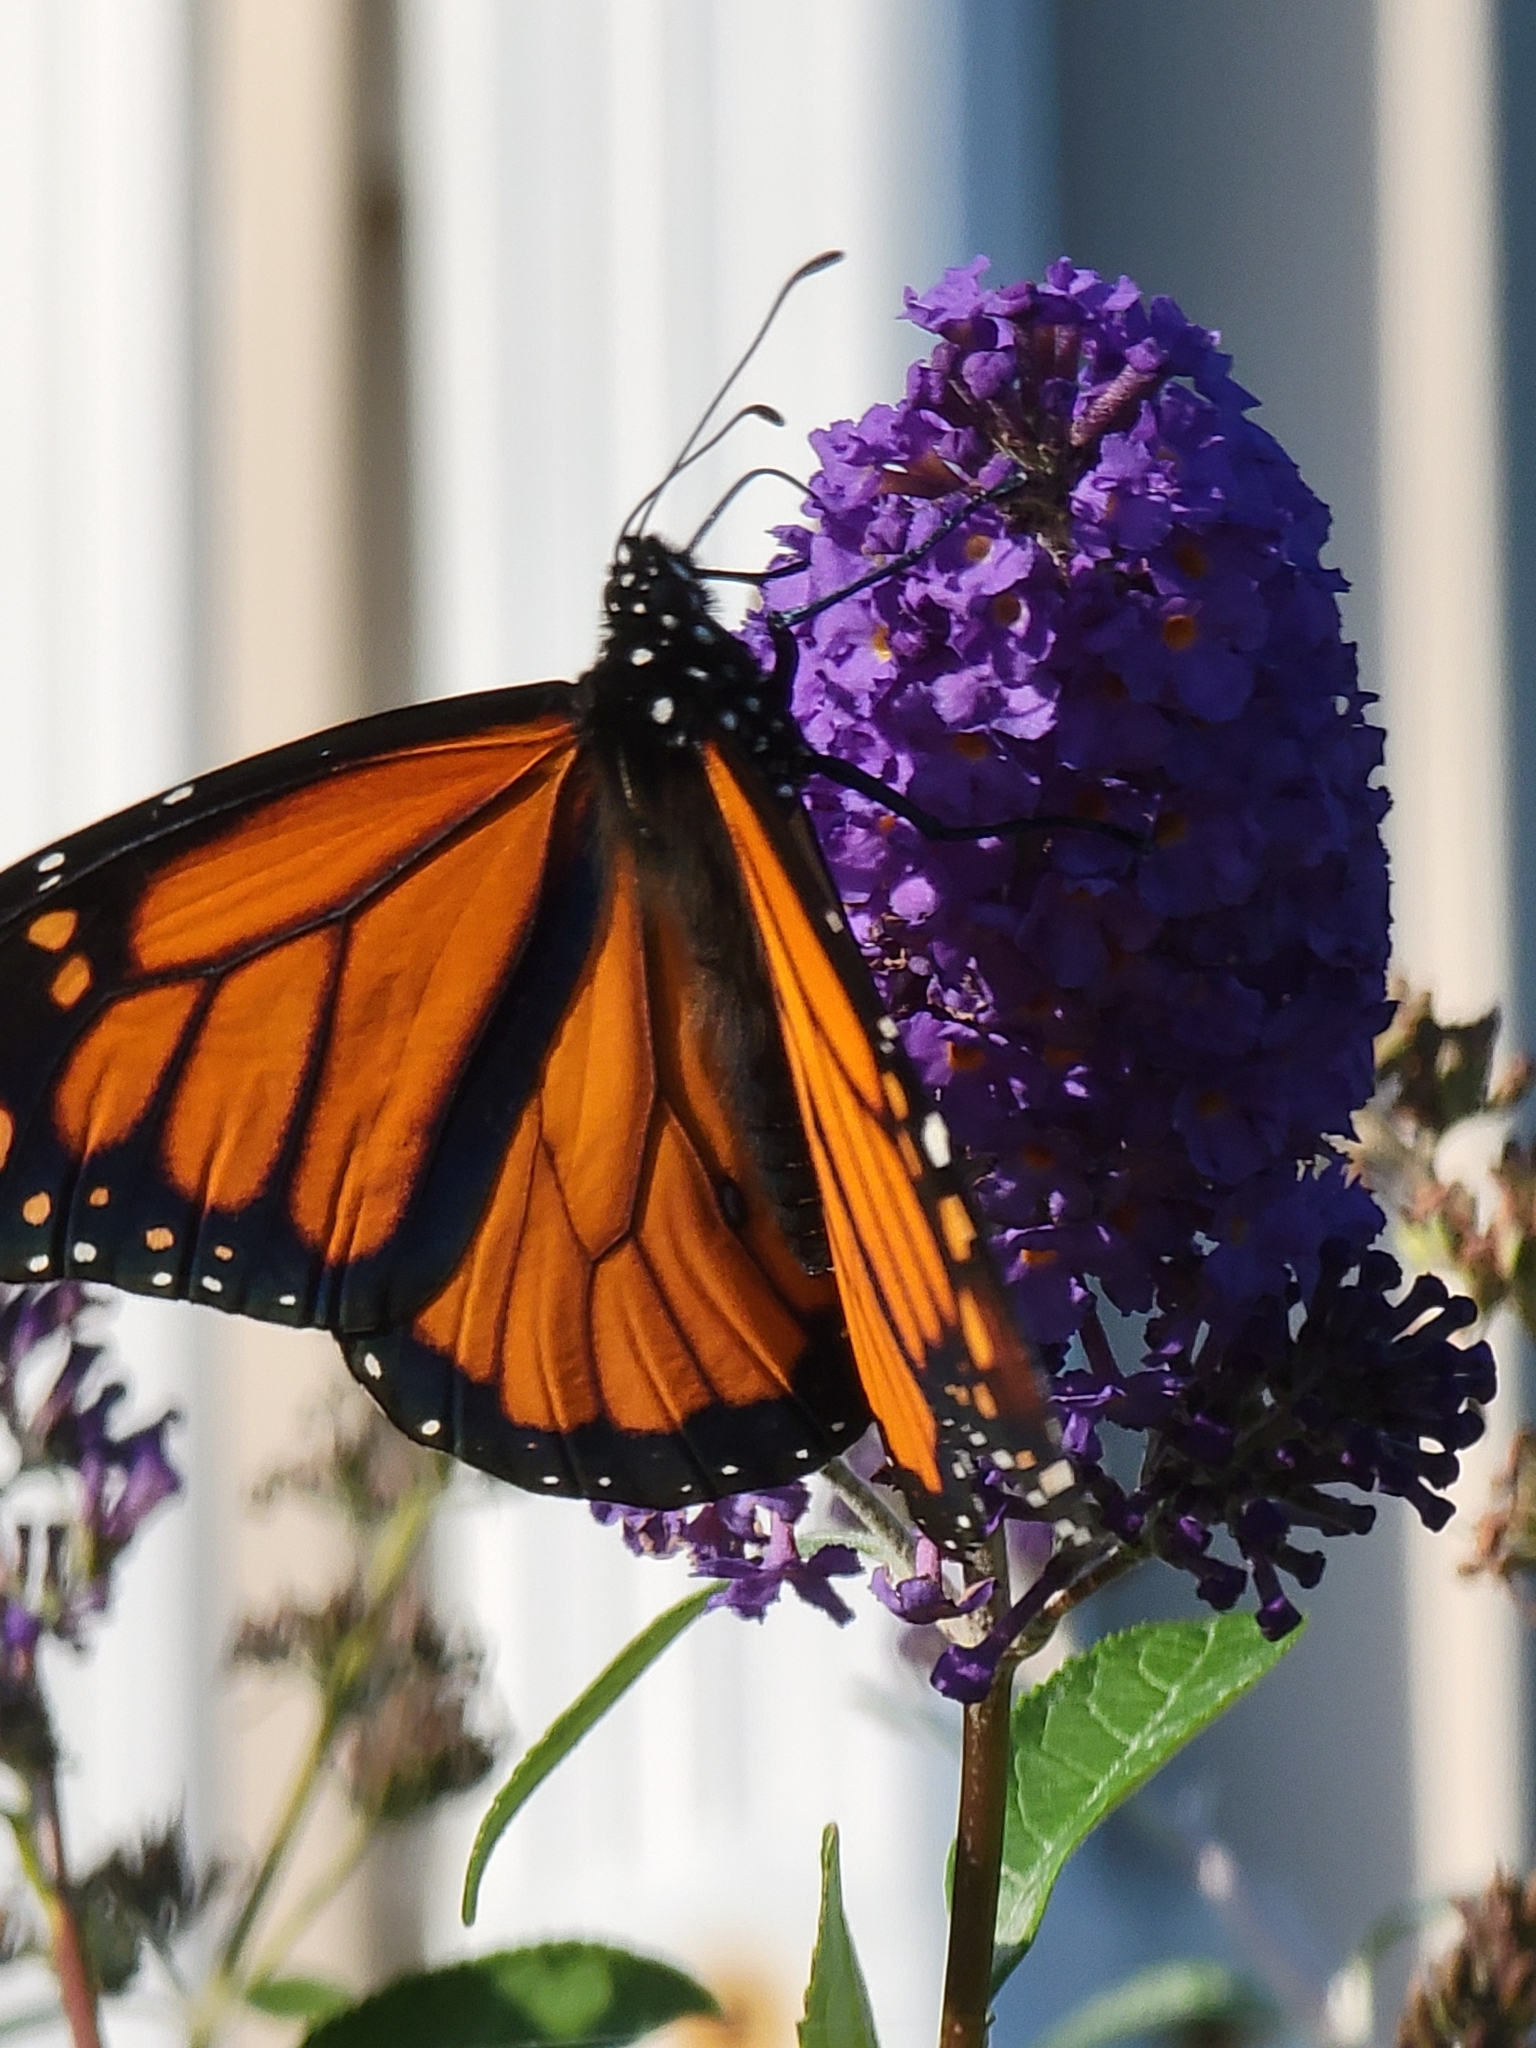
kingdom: Animalia
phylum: Arthropoda
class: Insecta
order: Lepidoptera
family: Nymphalidae
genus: Danaus
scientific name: Danaus plexippus
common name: Monarch
